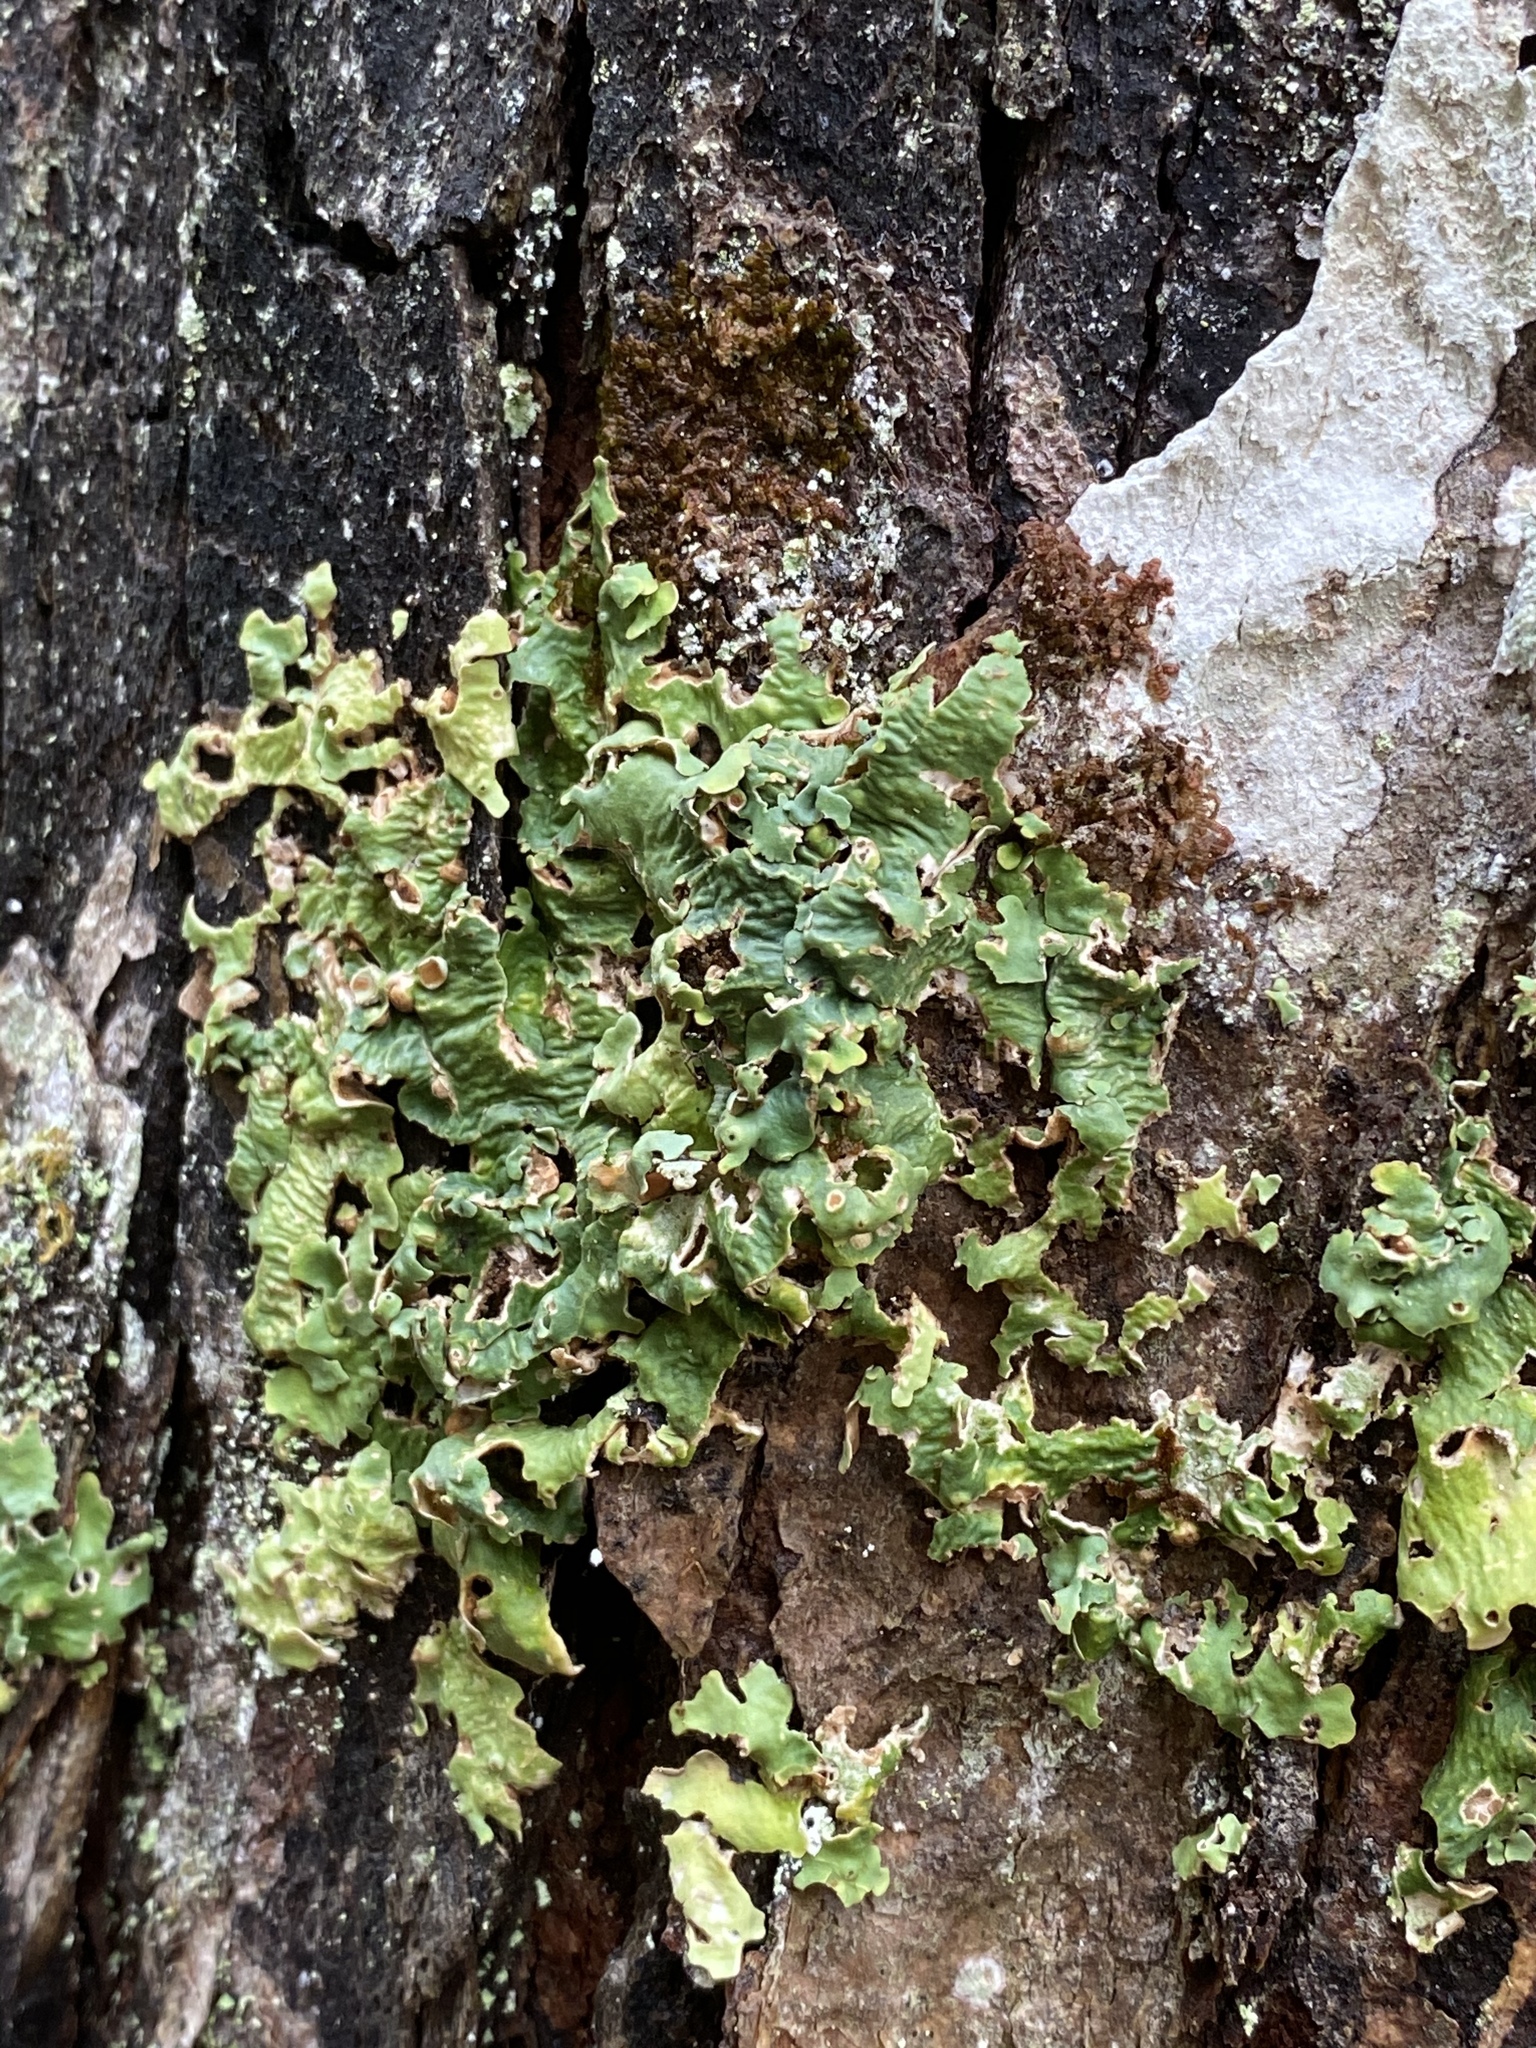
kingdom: Fungi
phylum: Ascomycota
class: Lecanoromycetes
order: Peltigerales
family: Lobariaceae
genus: Ricasolia
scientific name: Ricasolia quercizans
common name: Smooth lungwort
